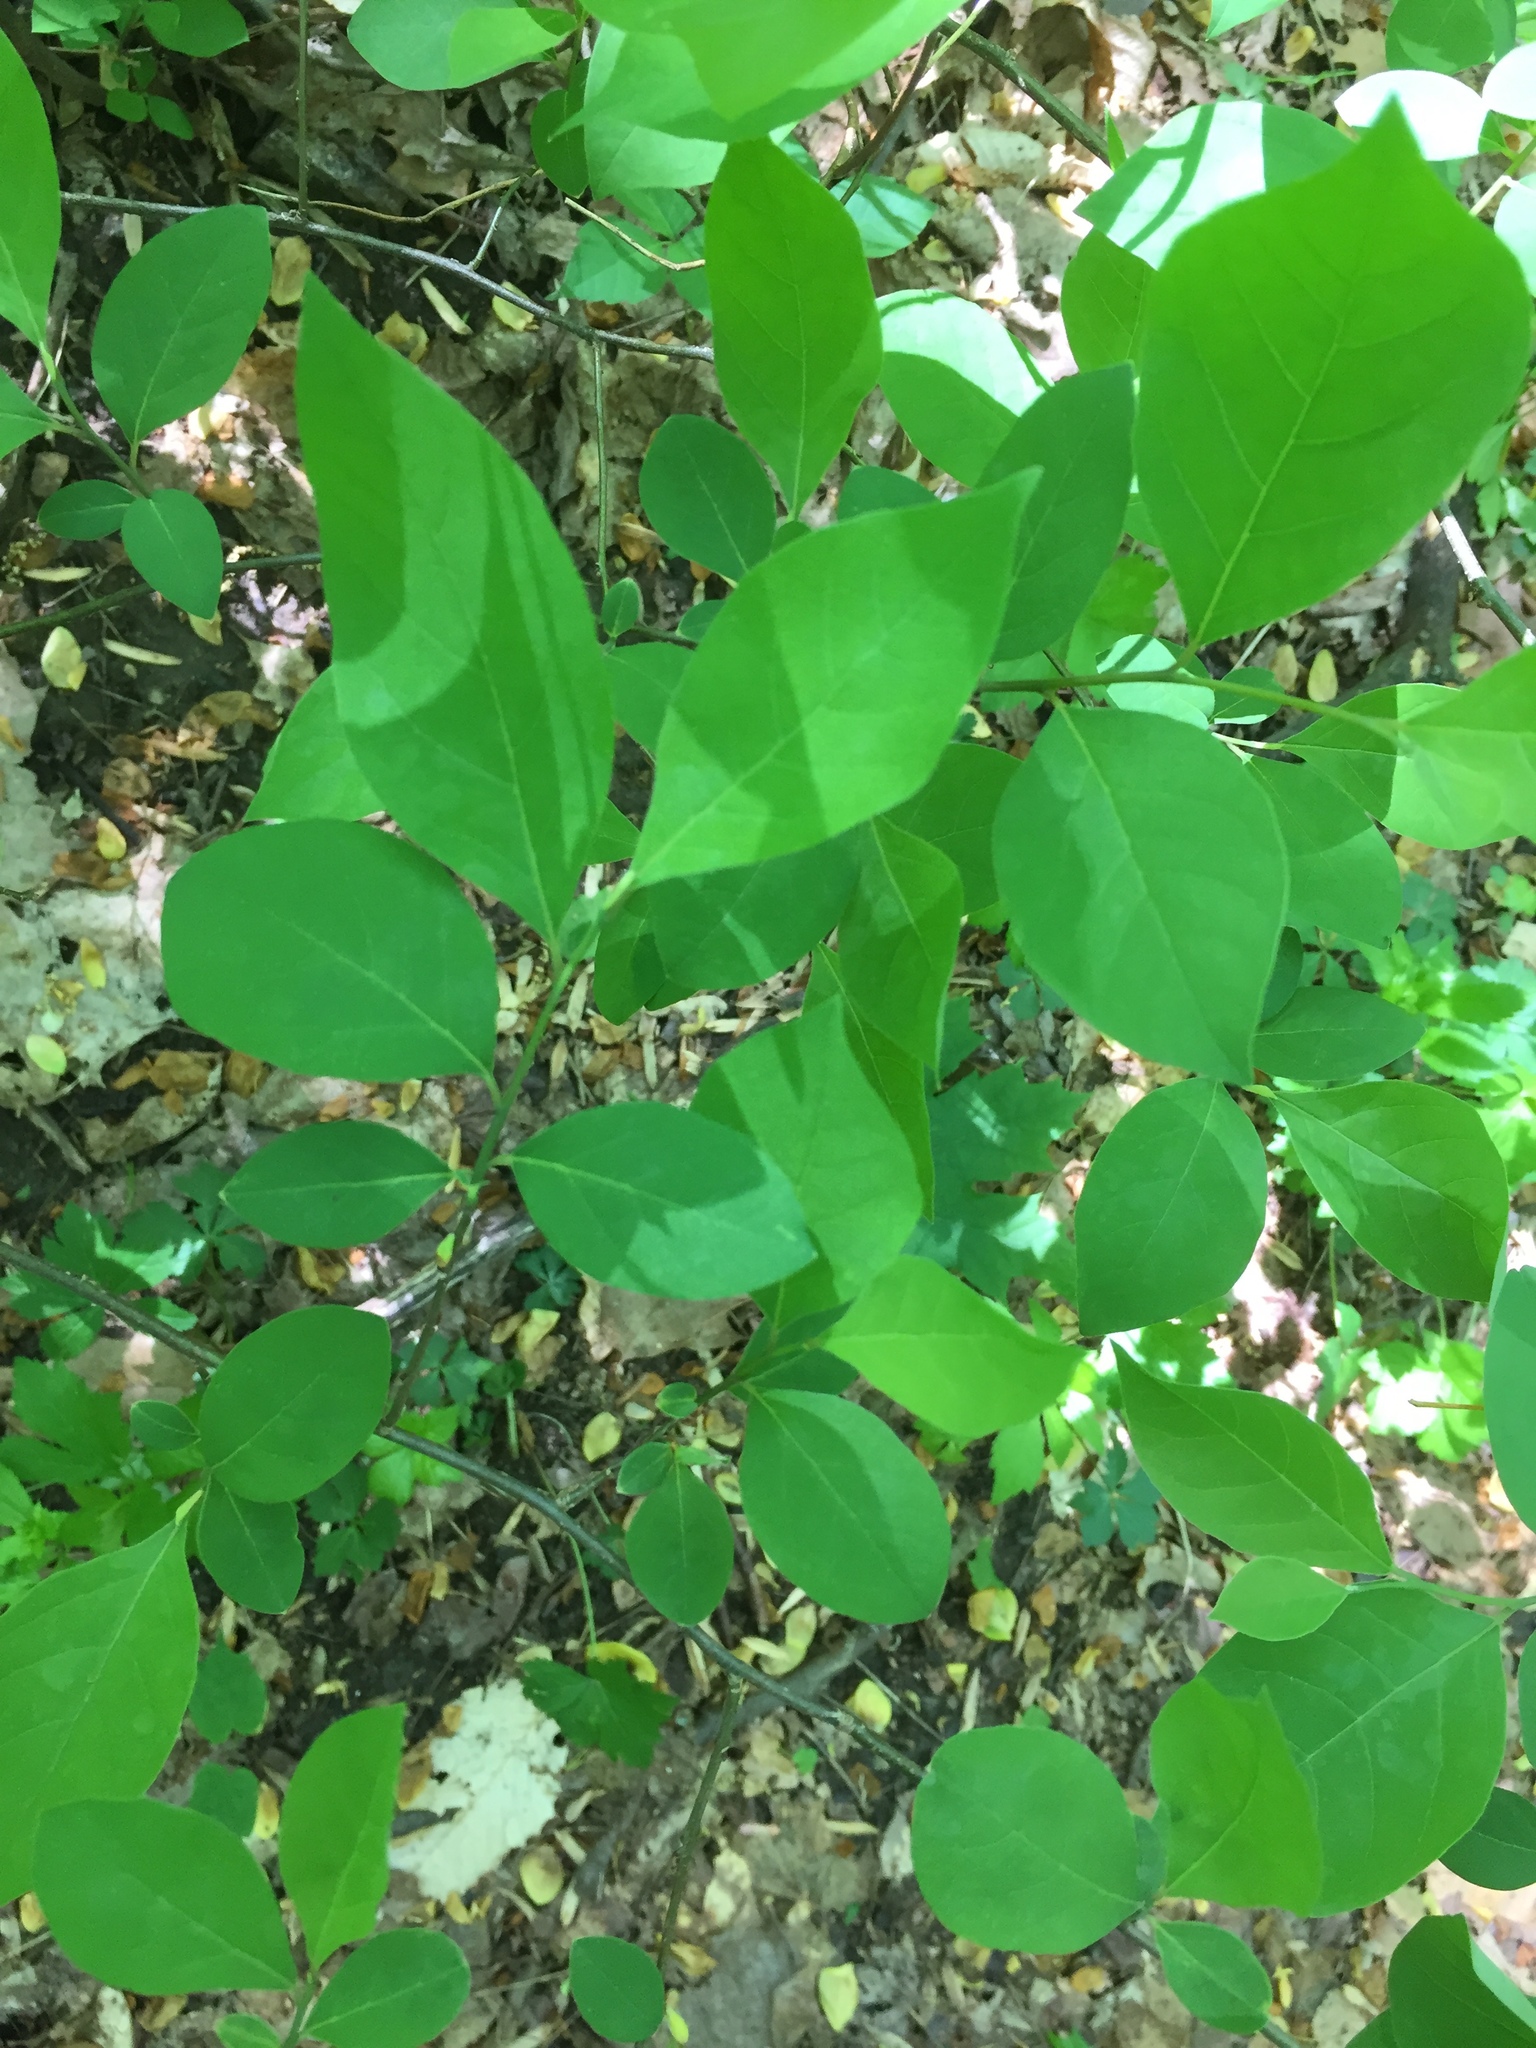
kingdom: Plantae
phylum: Tracheophyta
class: Magnoliopsida
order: Laurales
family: Lauraceae
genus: Lindera
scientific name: Lindera benzoin
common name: Spicebush
